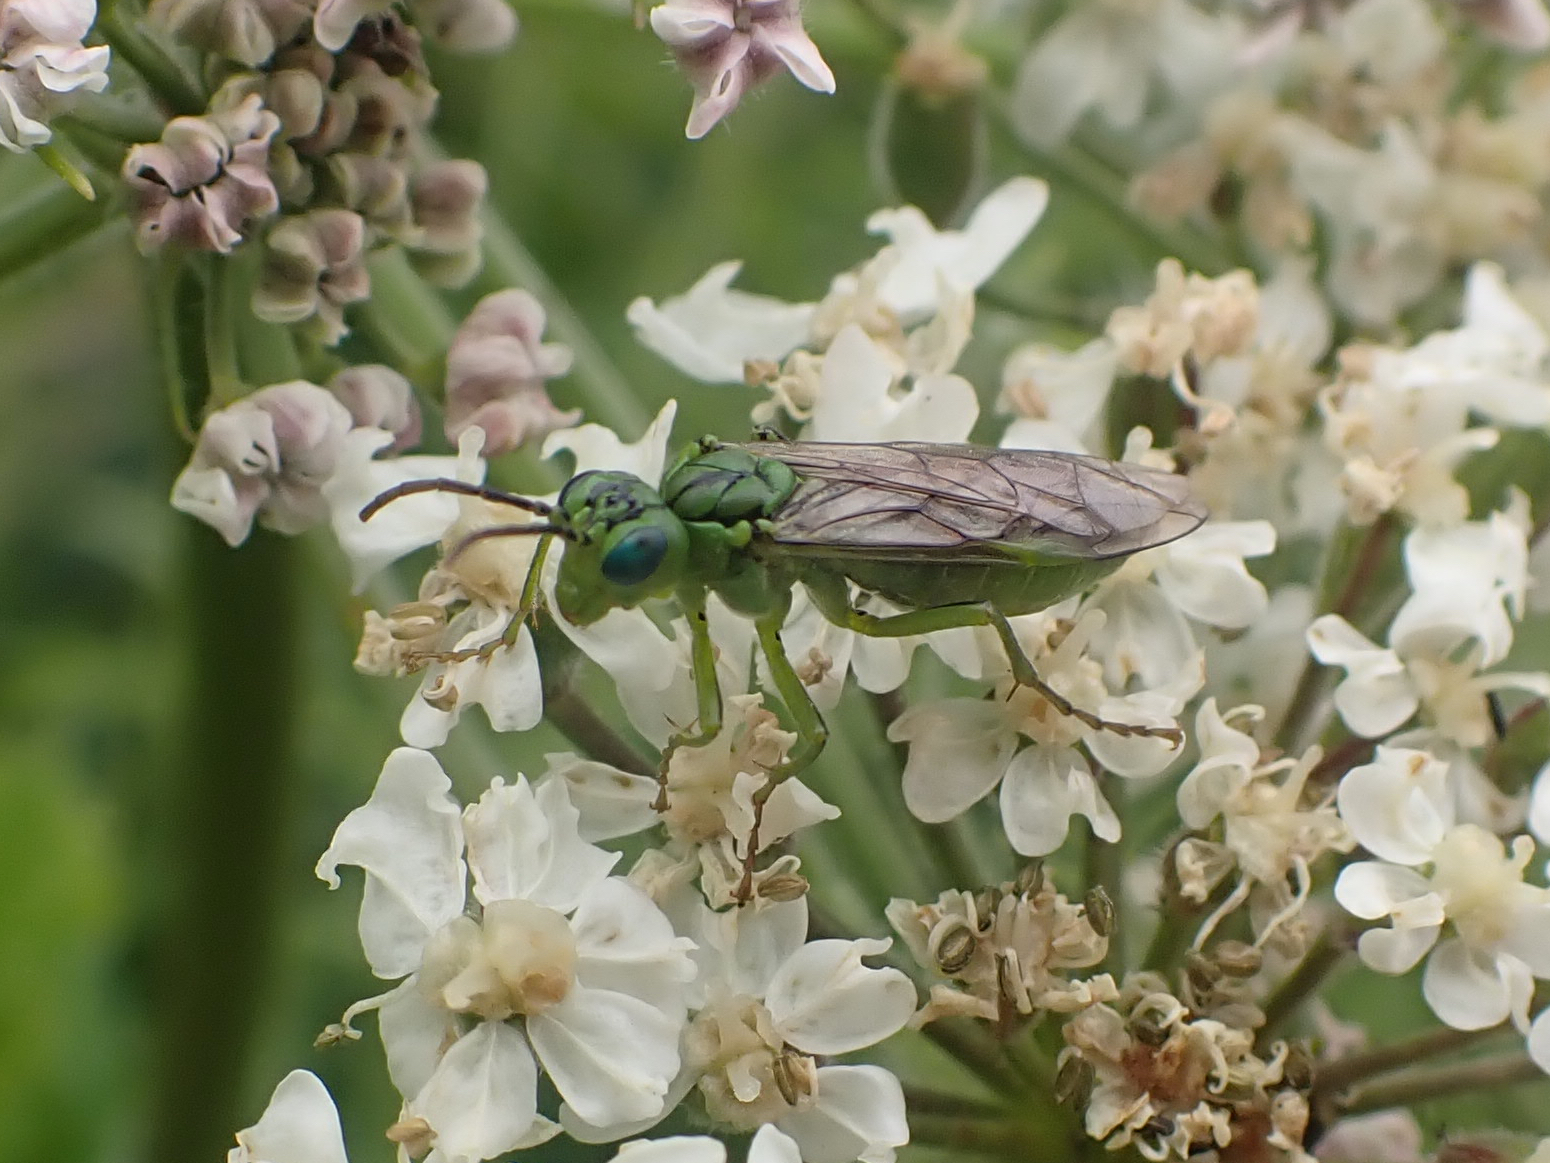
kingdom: Animalia
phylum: Arthropoda
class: Insecta
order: Hymenoptera
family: Tenthredinidae
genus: Tenthredo
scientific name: Tenthredo olivacea
